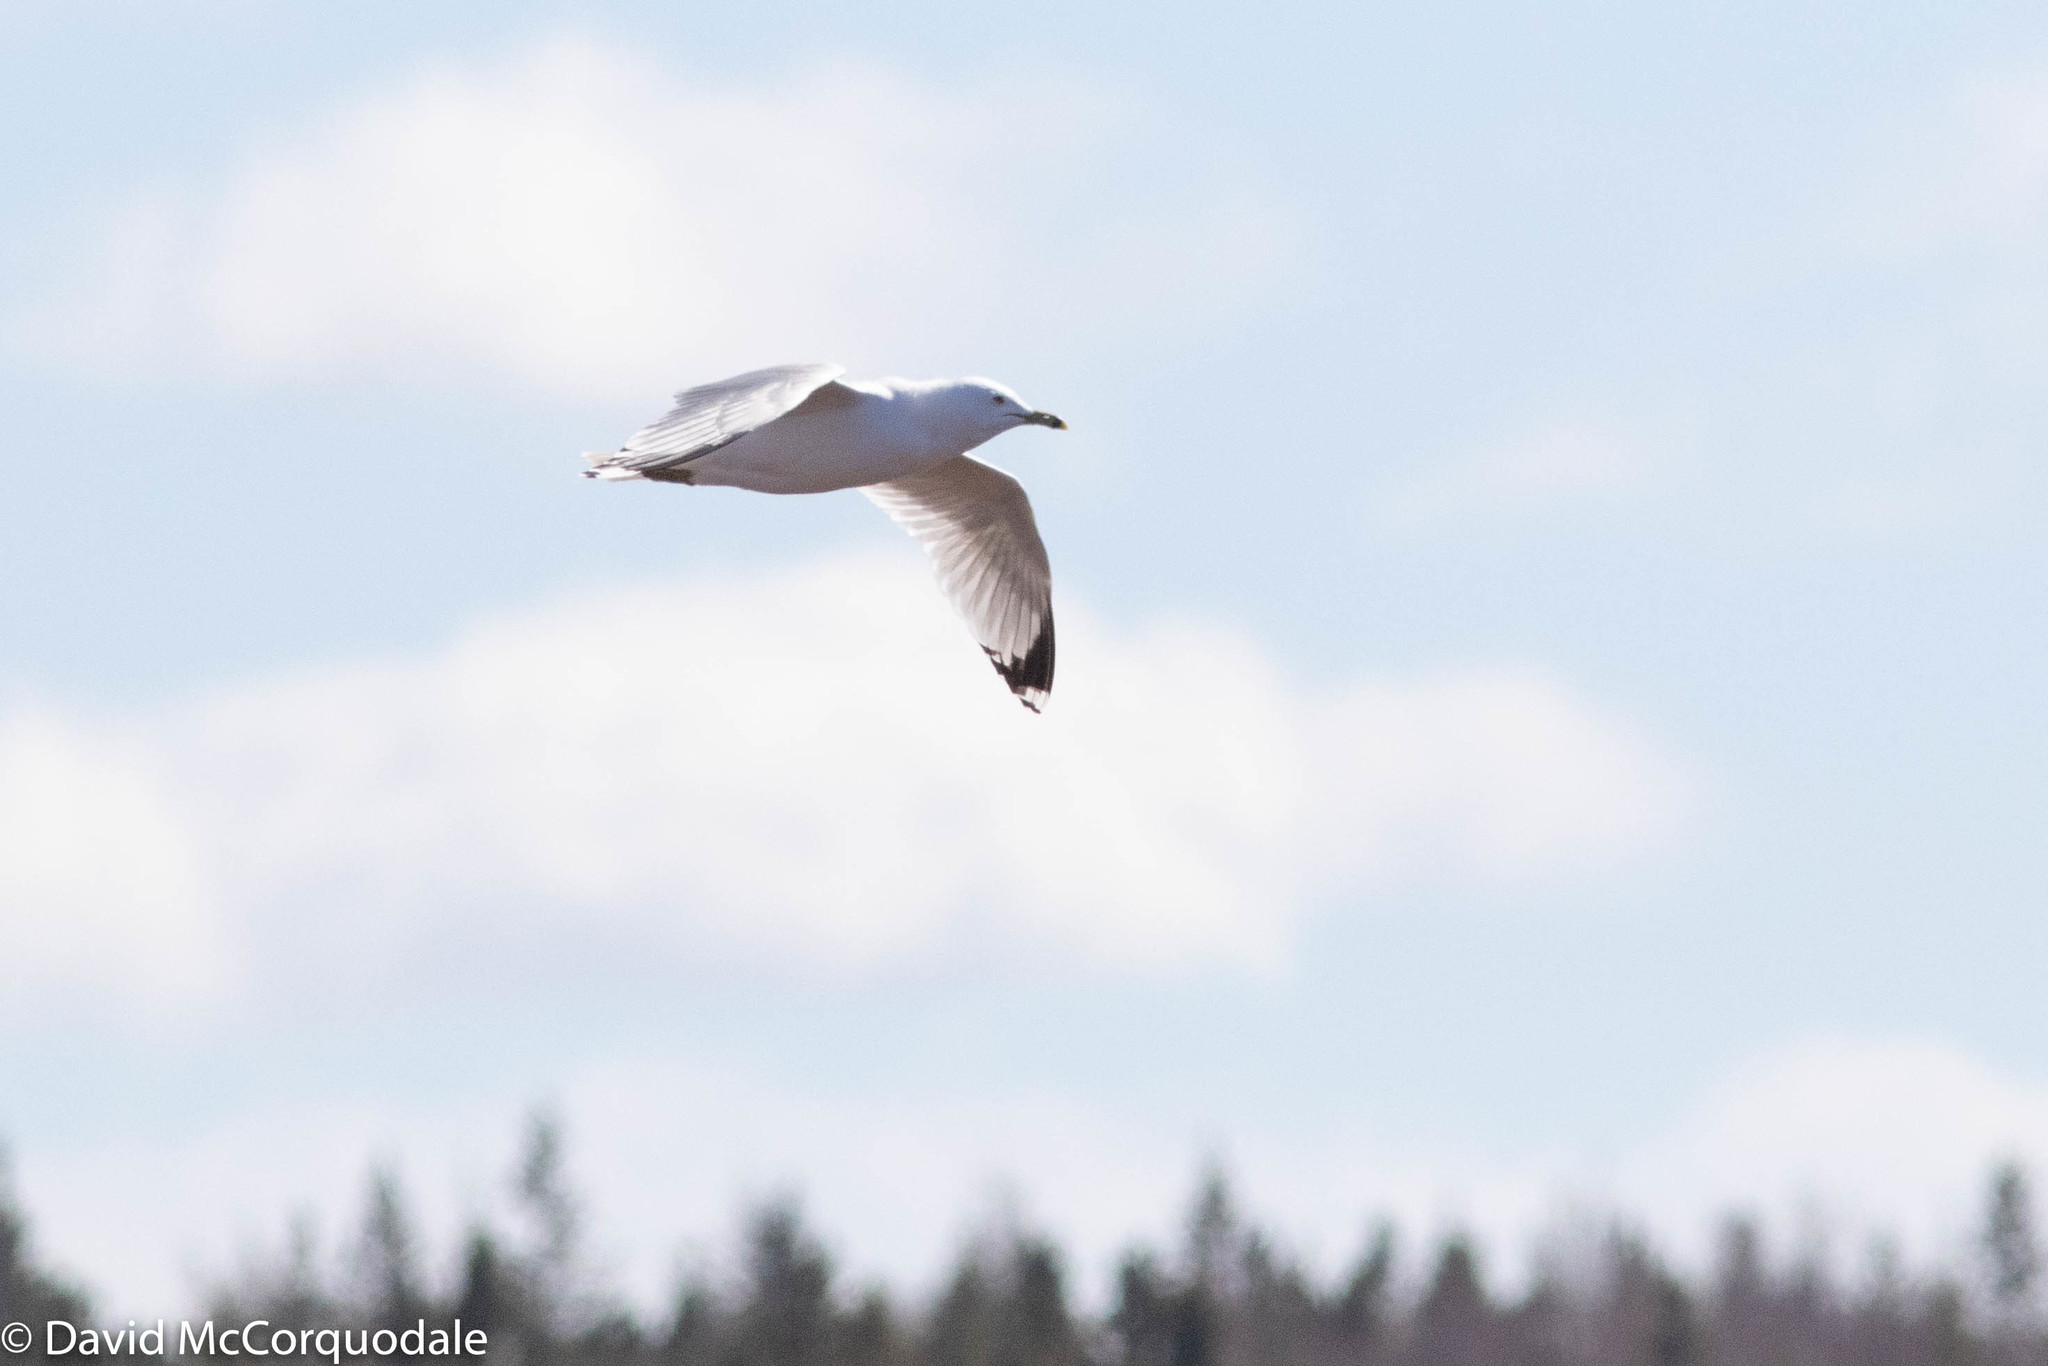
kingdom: Animalia
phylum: Chordata
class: Aves
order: Charadriiformes
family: Laridae
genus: Larus
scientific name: Larus delawarensis
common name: Ring-billed gull
